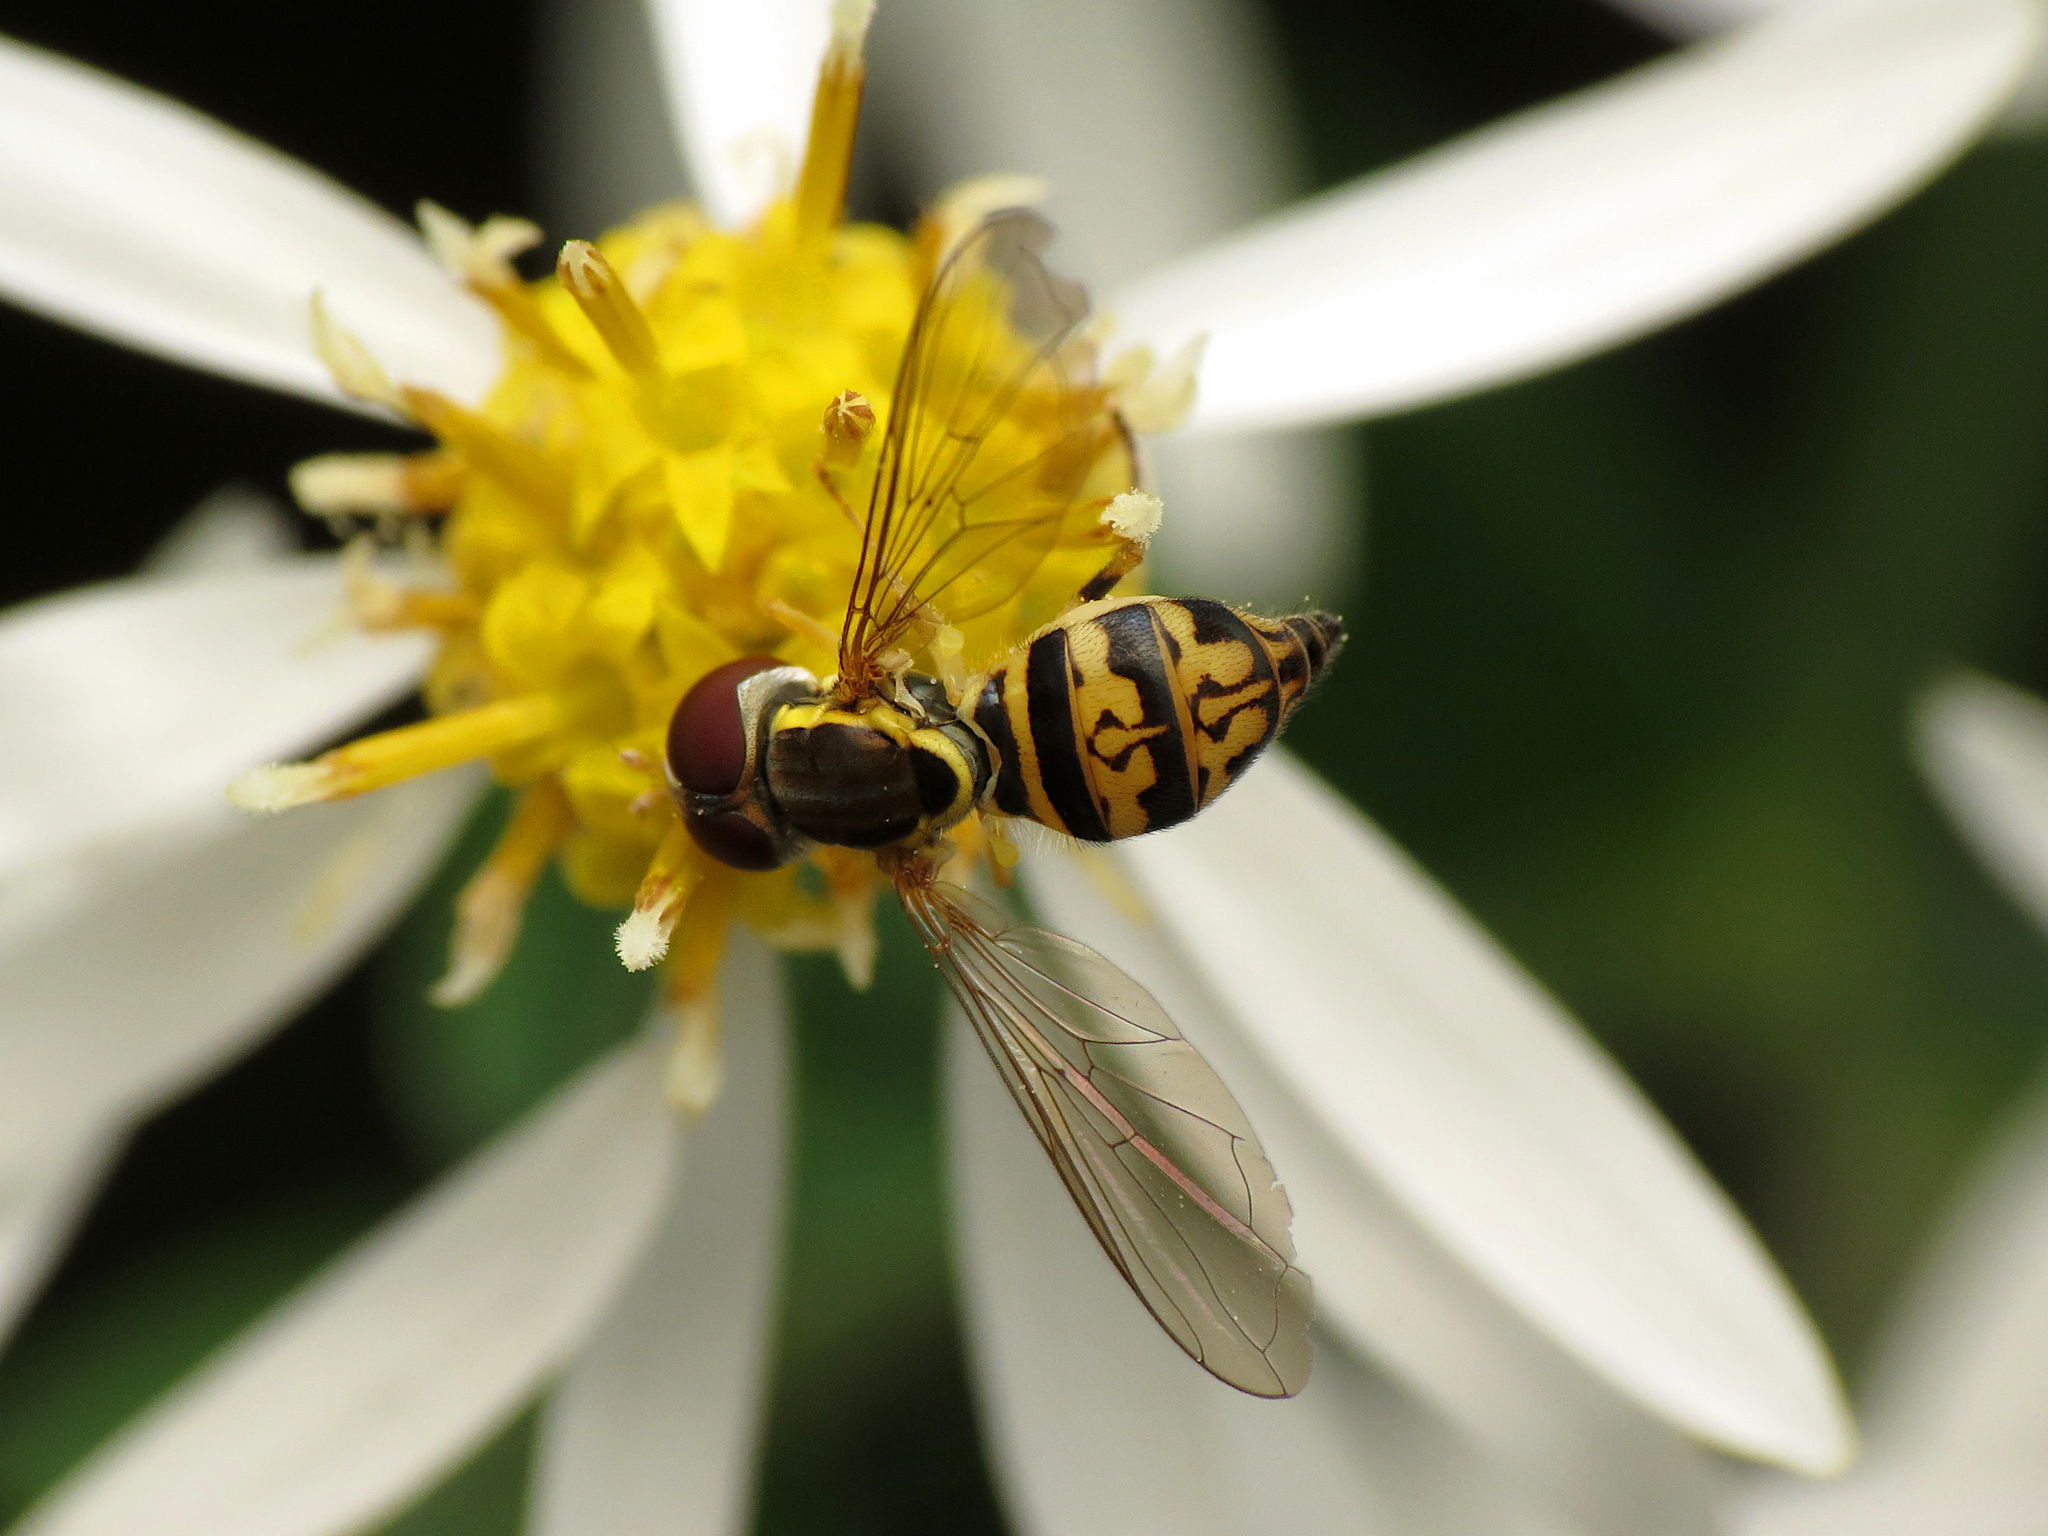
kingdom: Animalia
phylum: Arthropoda
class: Insecta
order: Diptera
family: Syrphidae
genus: Toxomerus
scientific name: Toxomerus geminatus
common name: Eastern calligrapher
